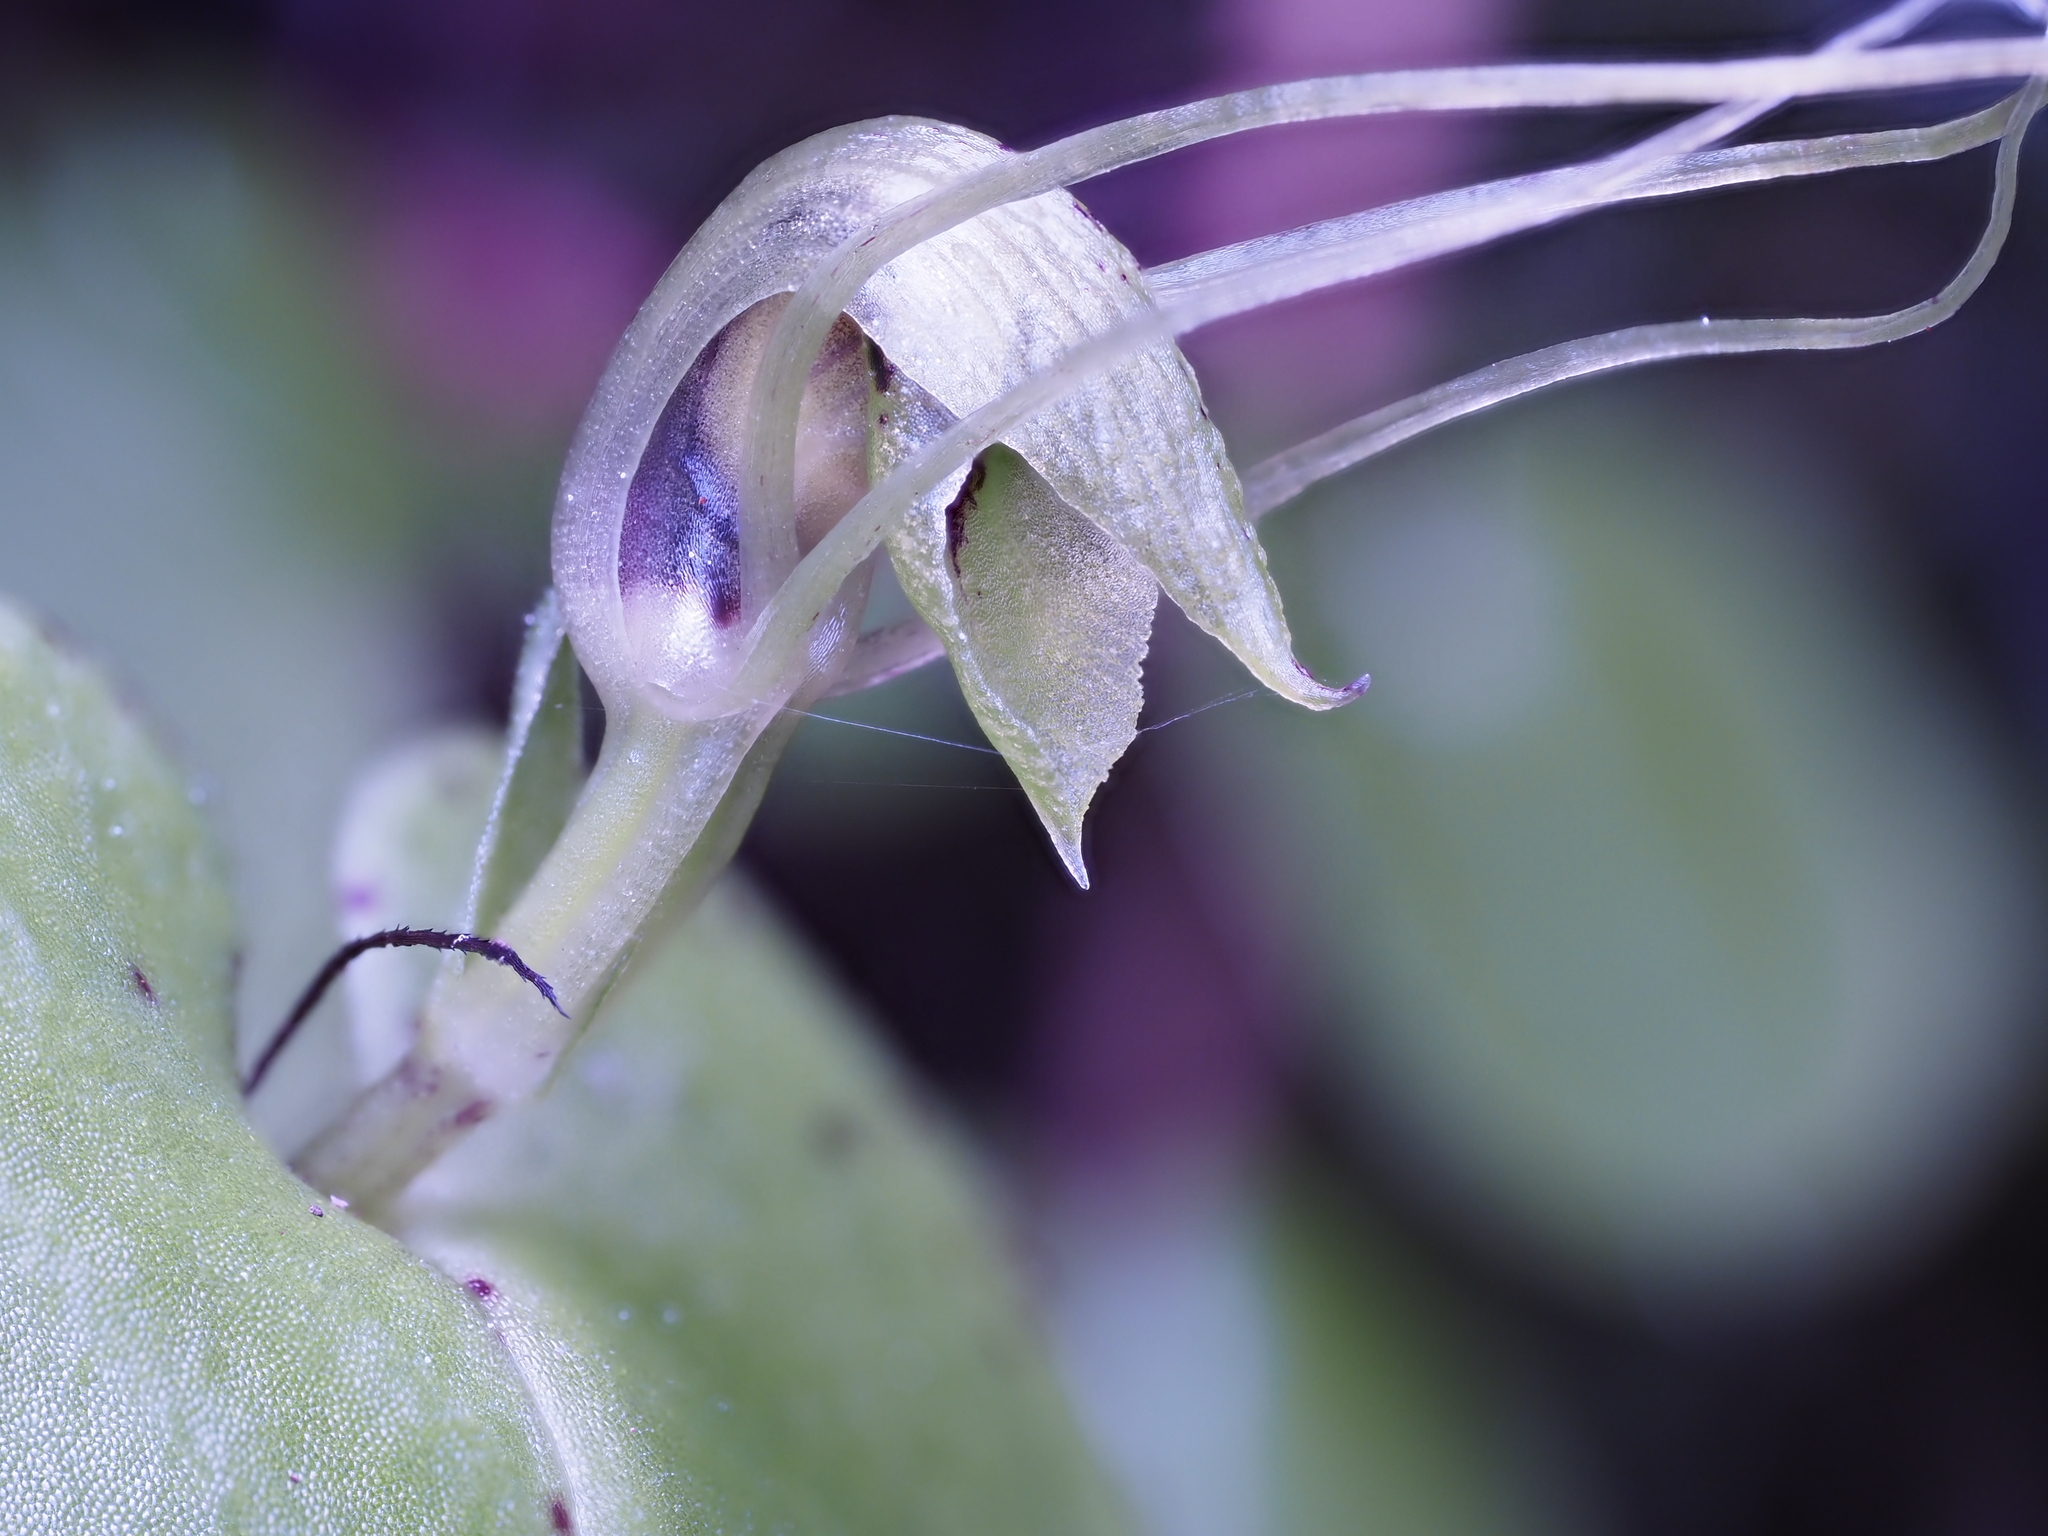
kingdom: Plantae
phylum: Tracheophyta
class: Liliopsida
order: Asparagales
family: Orchidaceae
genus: Corybas
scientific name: Corybas papa
